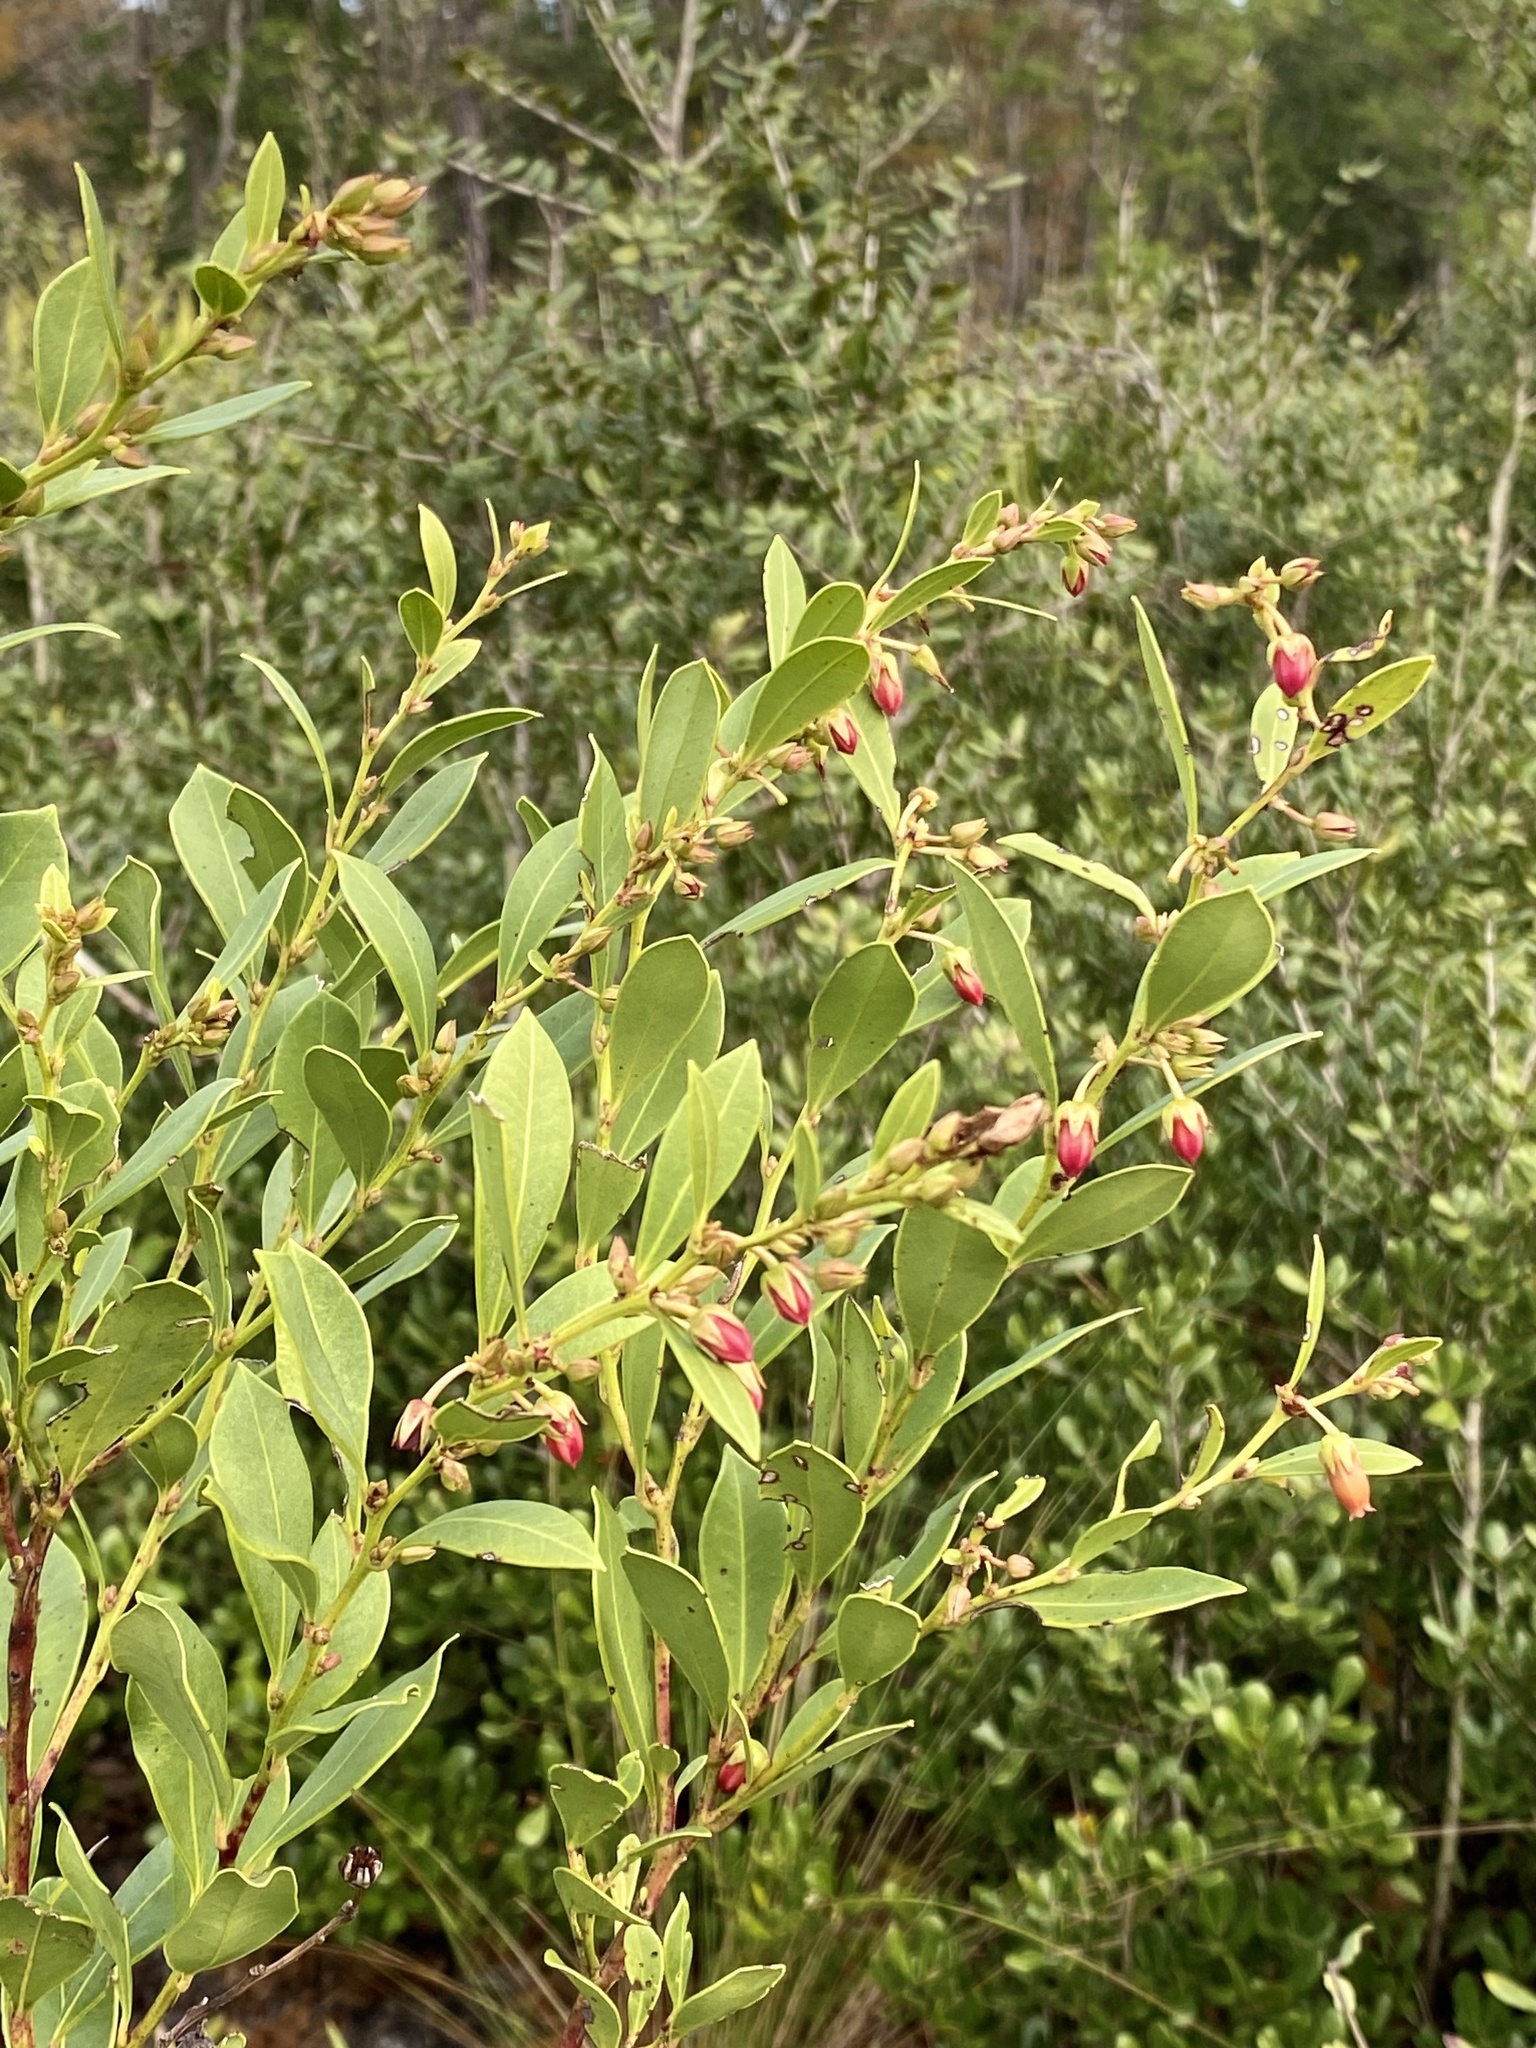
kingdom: Plantae
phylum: Tracheophyta
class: Magnoliopsida
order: Ericales
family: Ericaceae
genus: Lyonia
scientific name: Lyonia lucida
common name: Fetterbush
